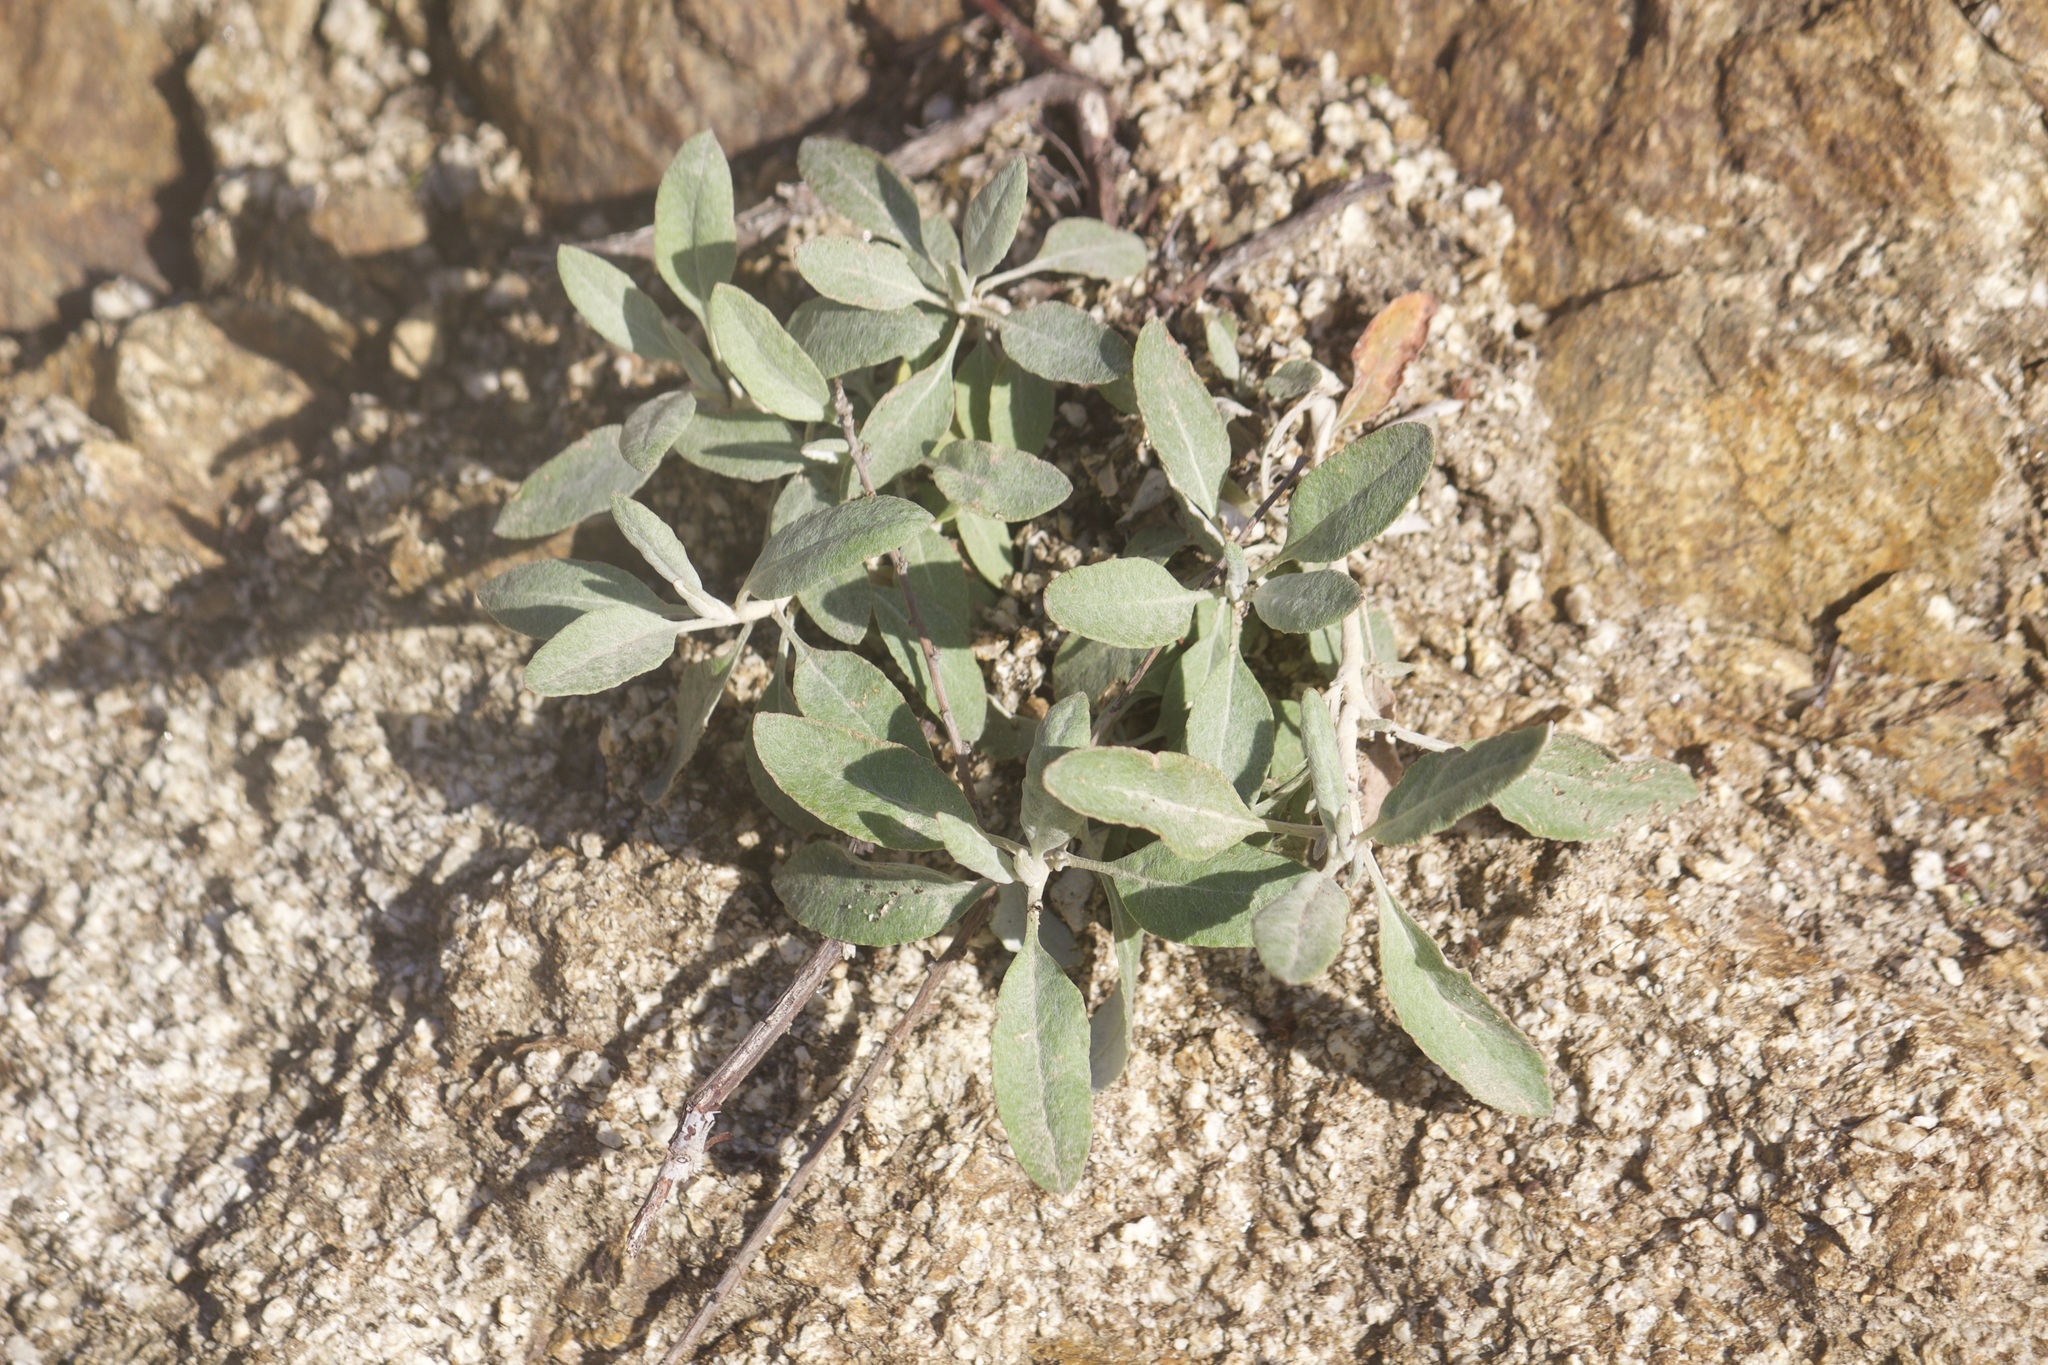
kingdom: Plantae
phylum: Tracheophyta
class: Magnoliopsida
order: Caryophyllales
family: Polygonaceae
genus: Eriogonum
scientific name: Eriogonum elongatum
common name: Long-stem wild buckwheat
